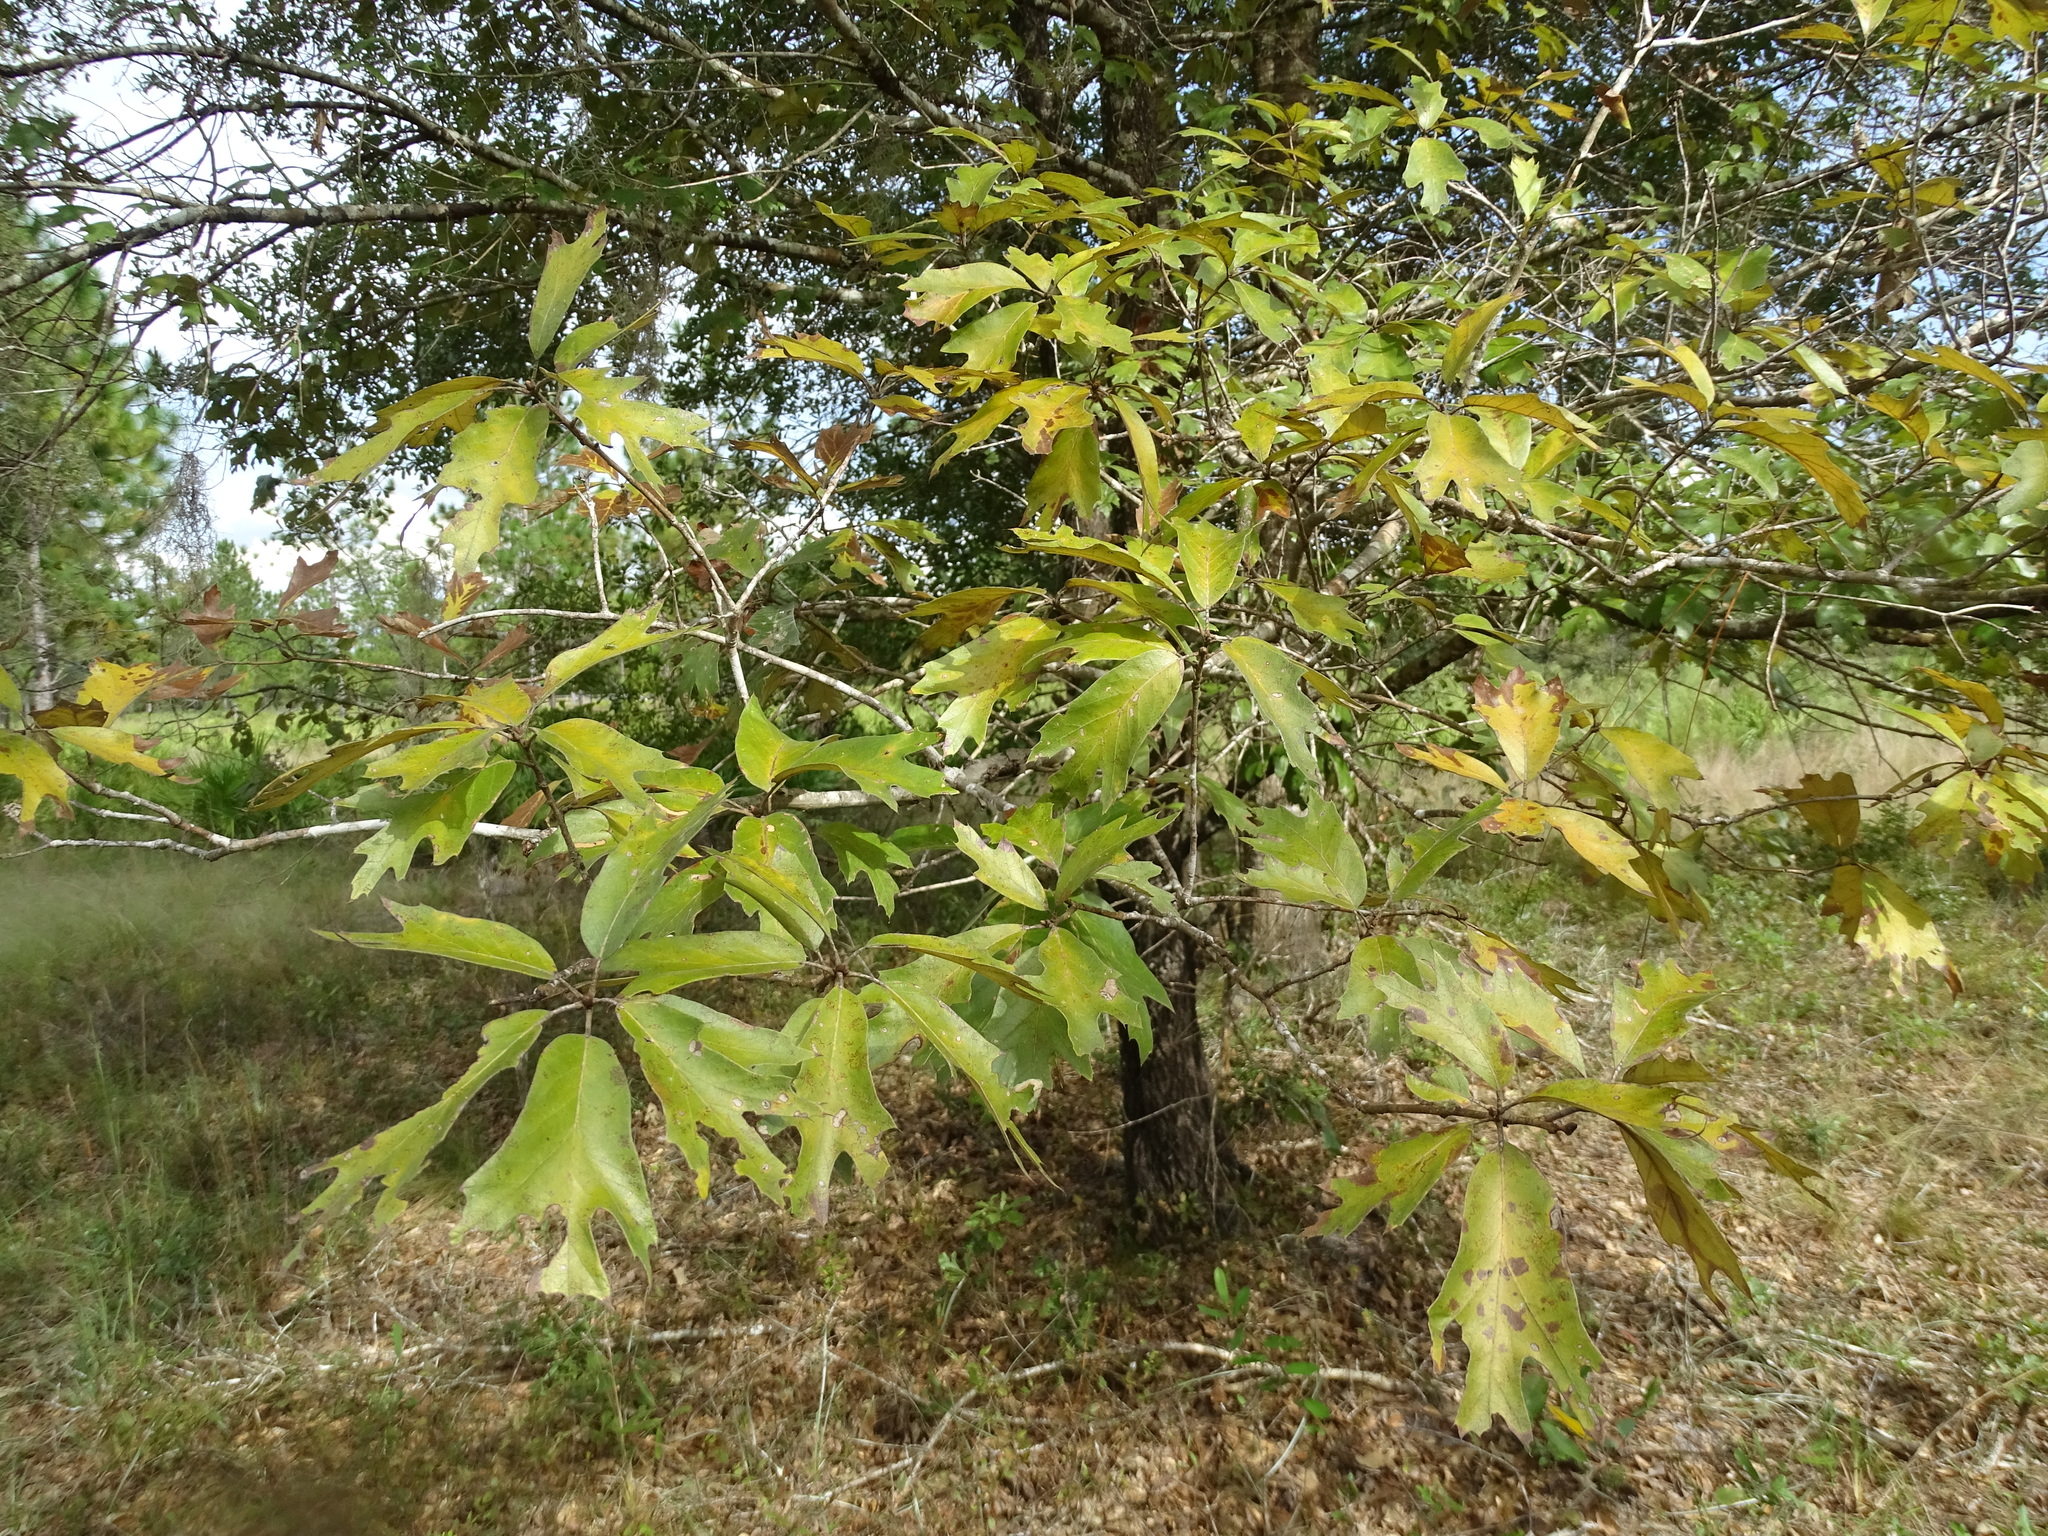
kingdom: Plantae
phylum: Tracheophyta
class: Magnoliopsida
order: Fagales
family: Fagaceae
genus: Quercus
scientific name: Quercus falcata
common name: Southern red oak
